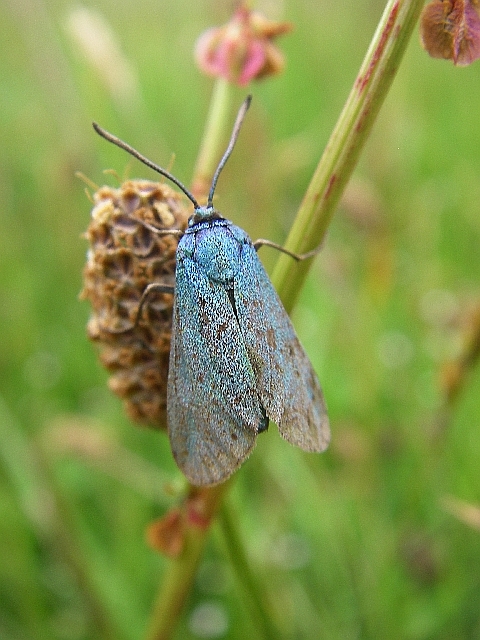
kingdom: Animalia
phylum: Arthropoda
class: Insecta
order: Lepidoptera
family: Zygaenidae
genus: Adscita
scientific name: Adscita statices
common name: Forester
